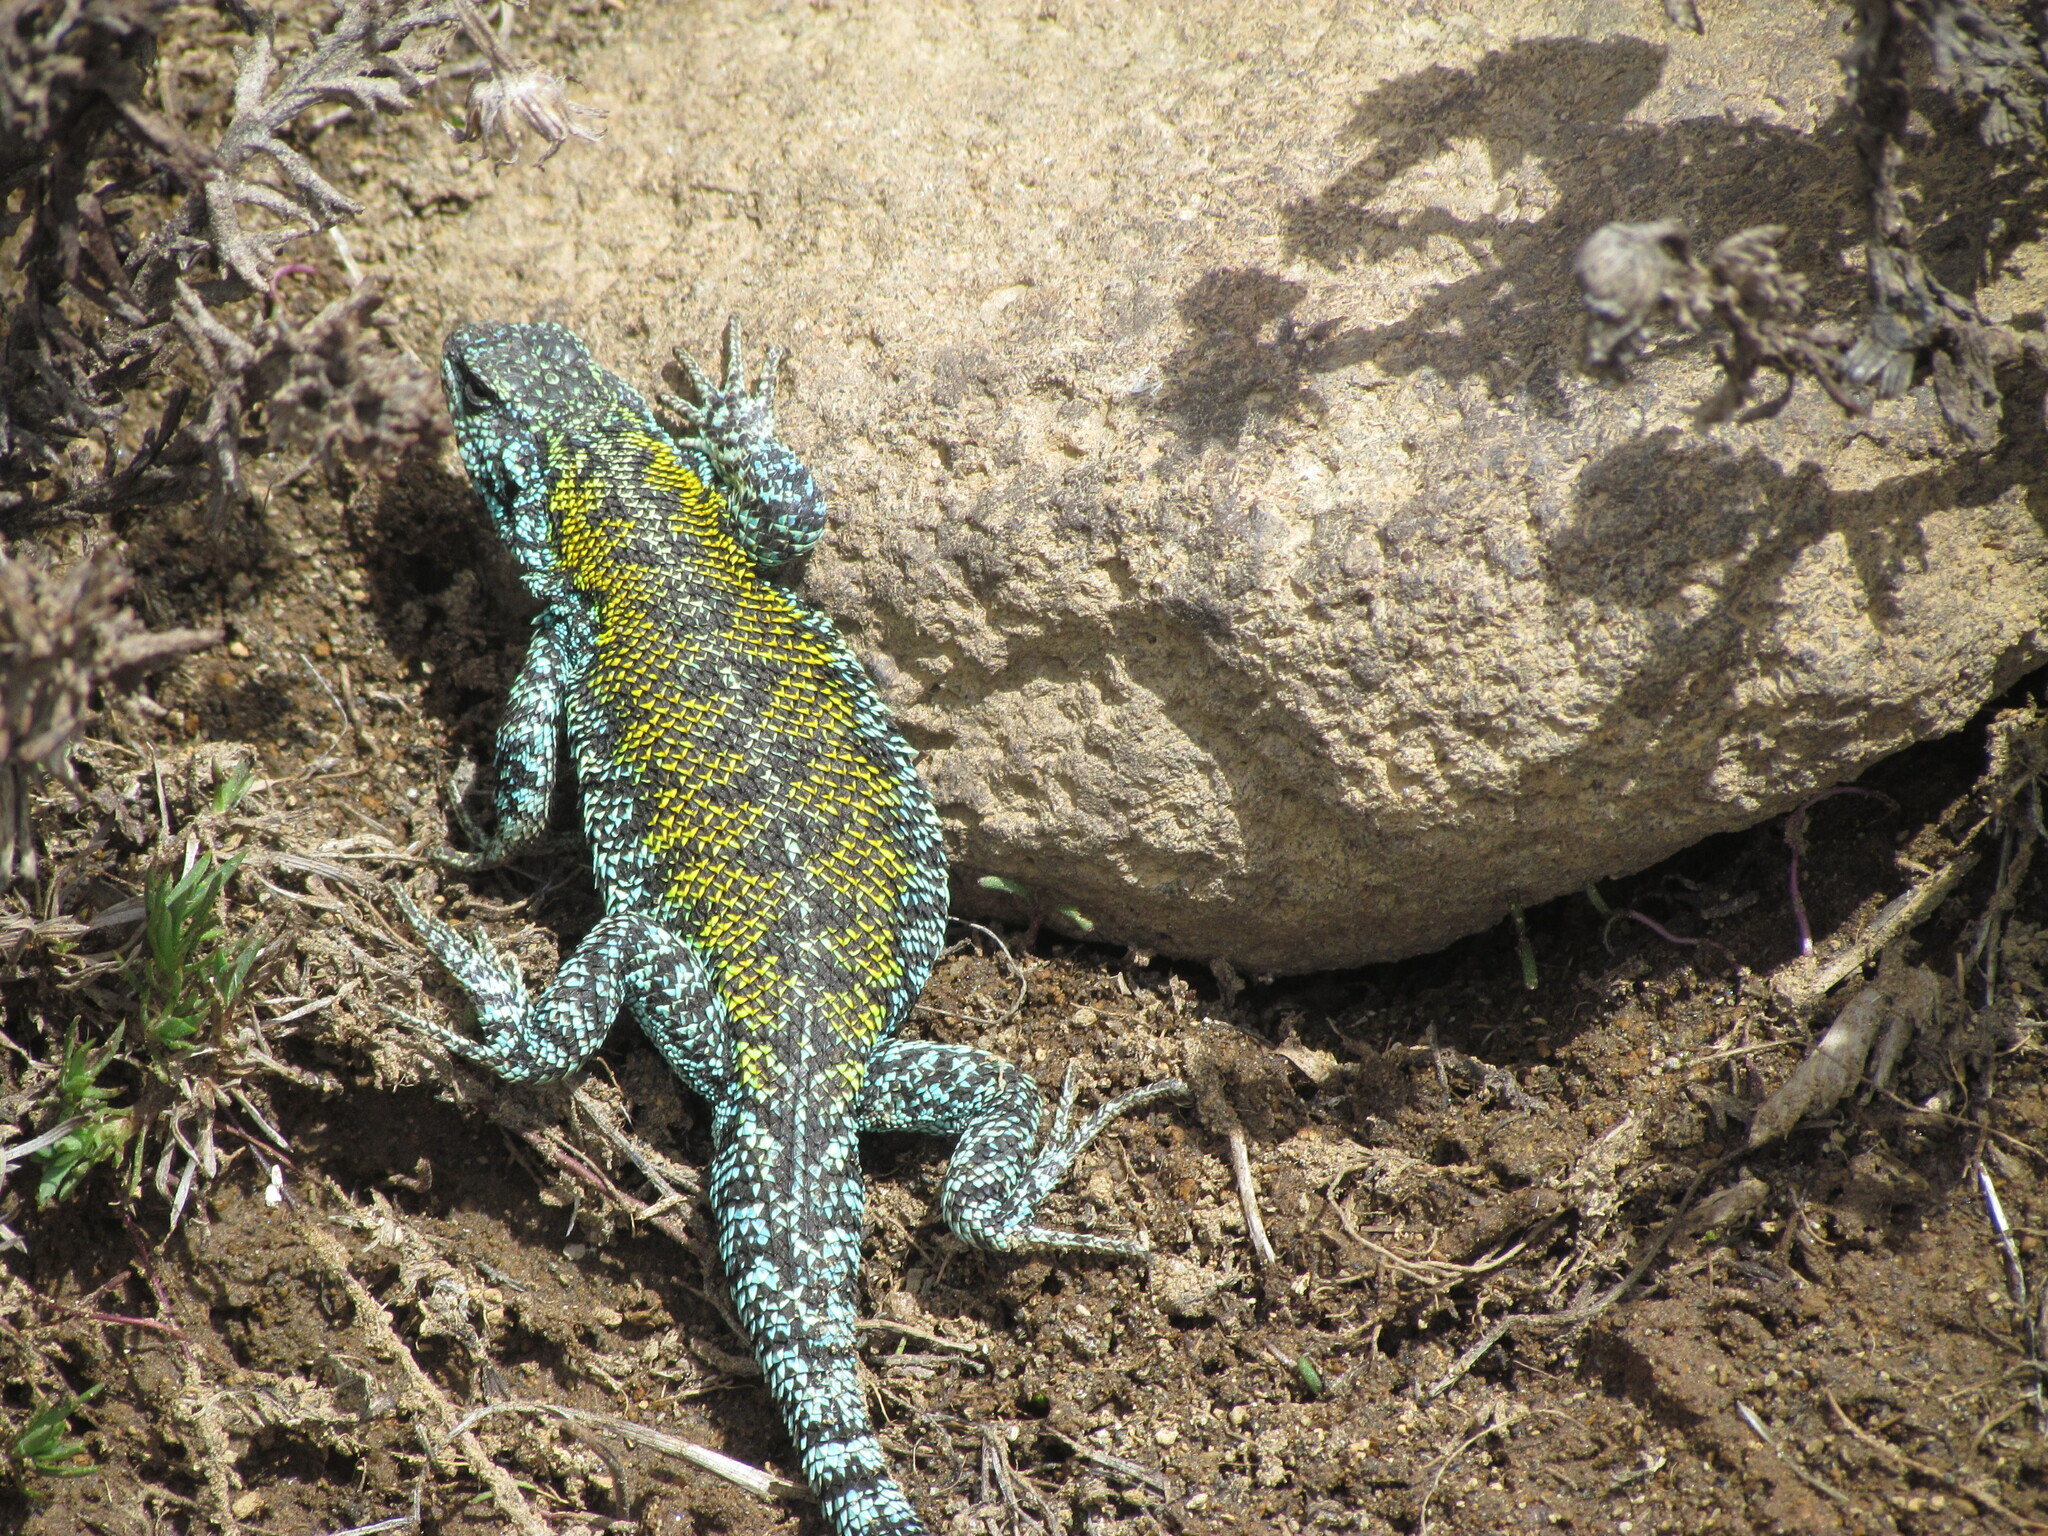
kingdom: Animalia
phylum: Chordata
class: Squamata
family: Liolaemidae
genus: Liolaemus
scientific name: Liolaemus archeforus
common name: Main tree iguana
